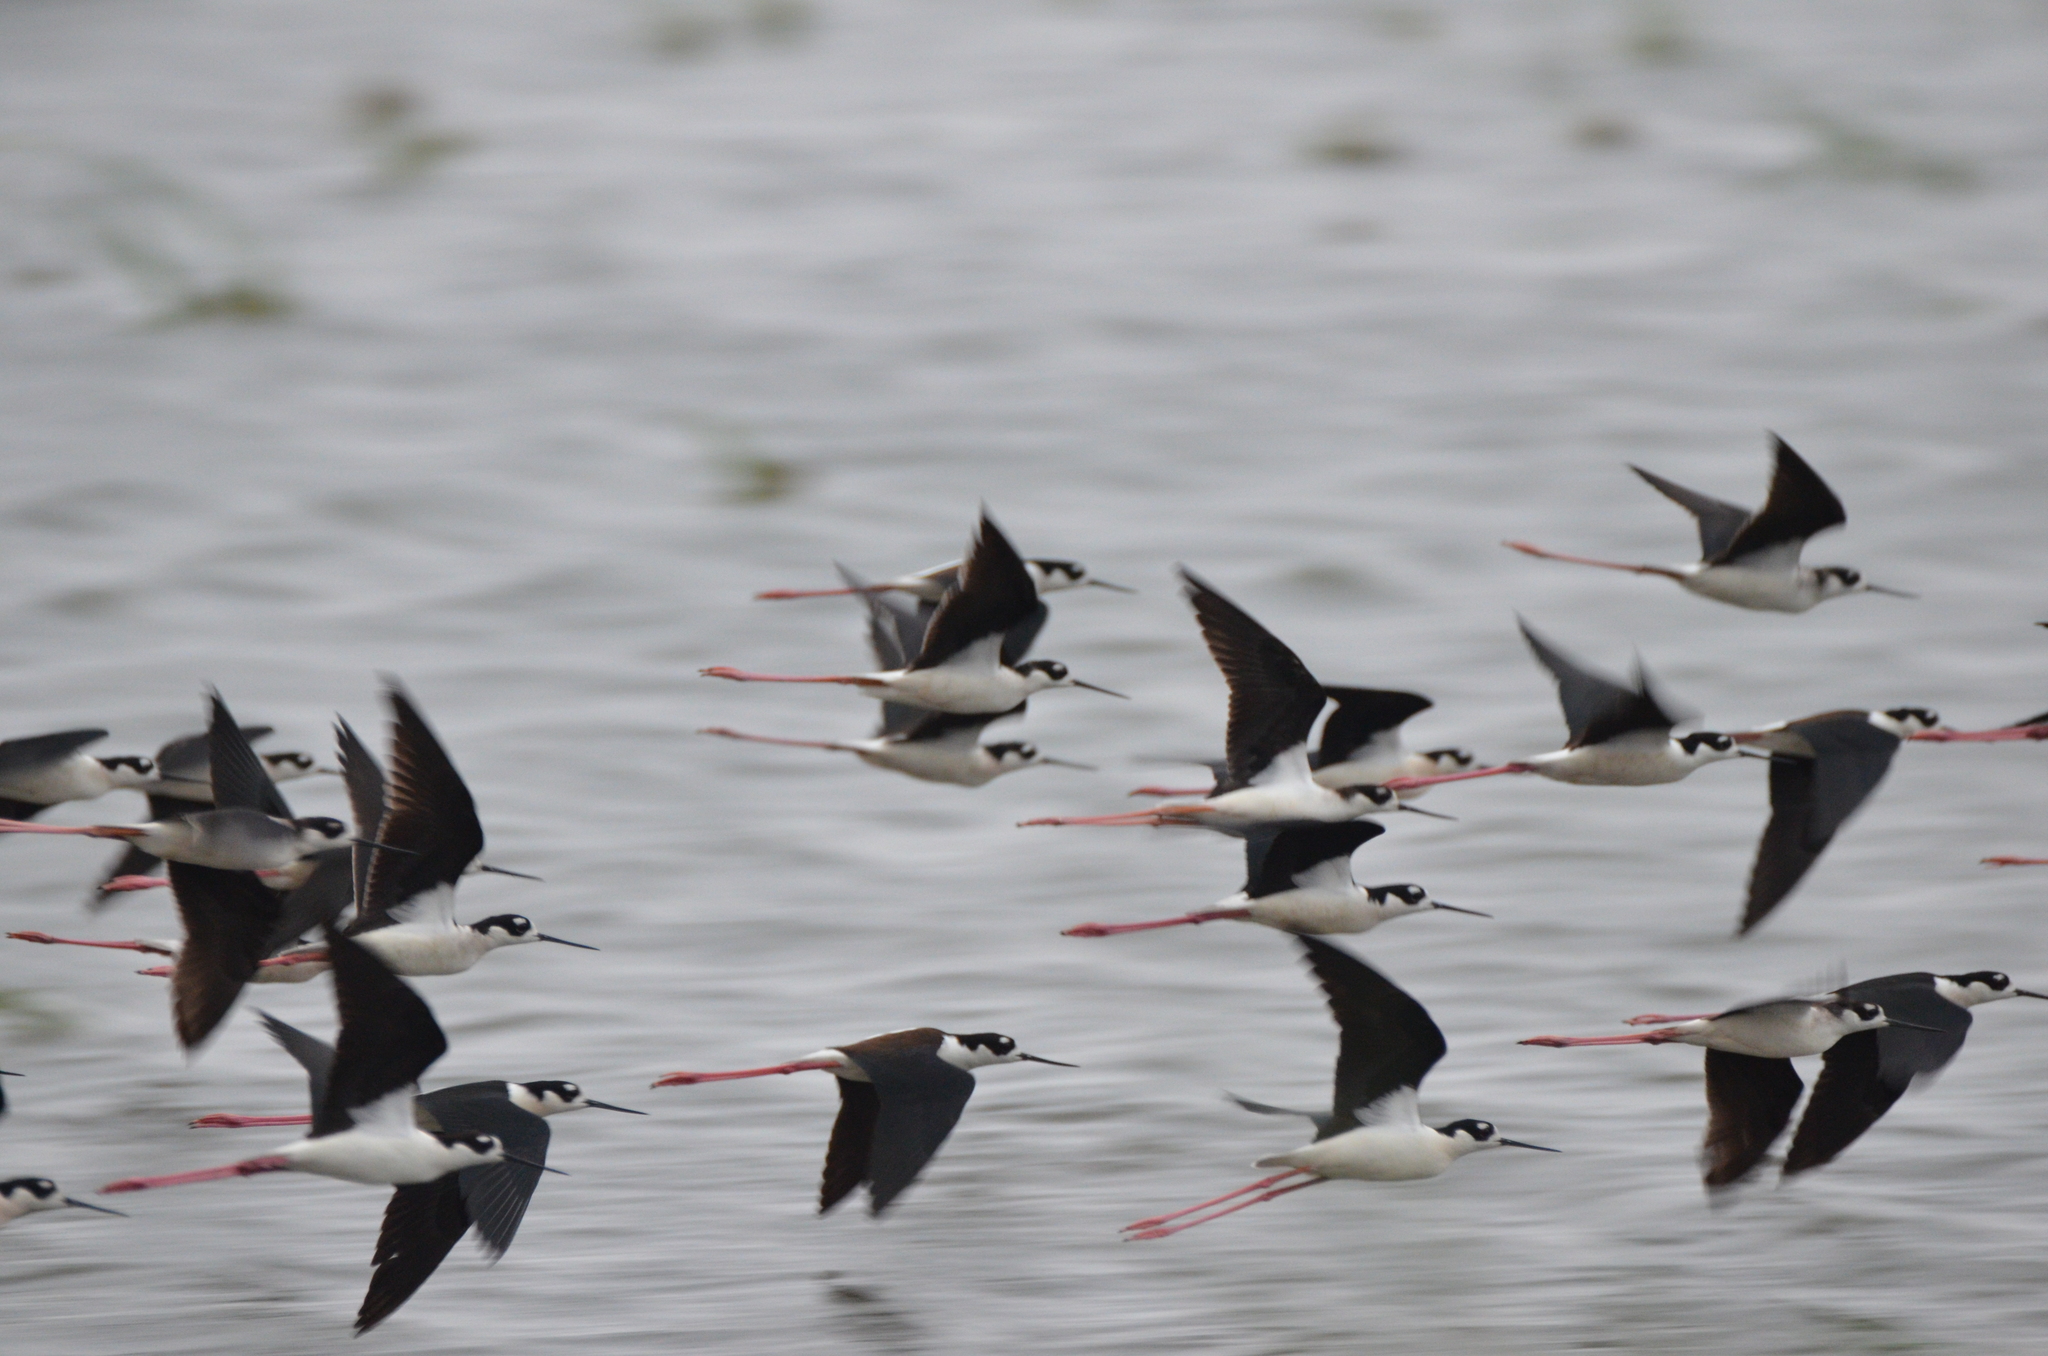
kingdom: Animalia
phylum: Chordata
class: Aves
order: Charadriiformes
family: Recurvirostridae
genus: Himantopus
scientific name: Himantopus mexicanus
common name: Black-necked stilt
